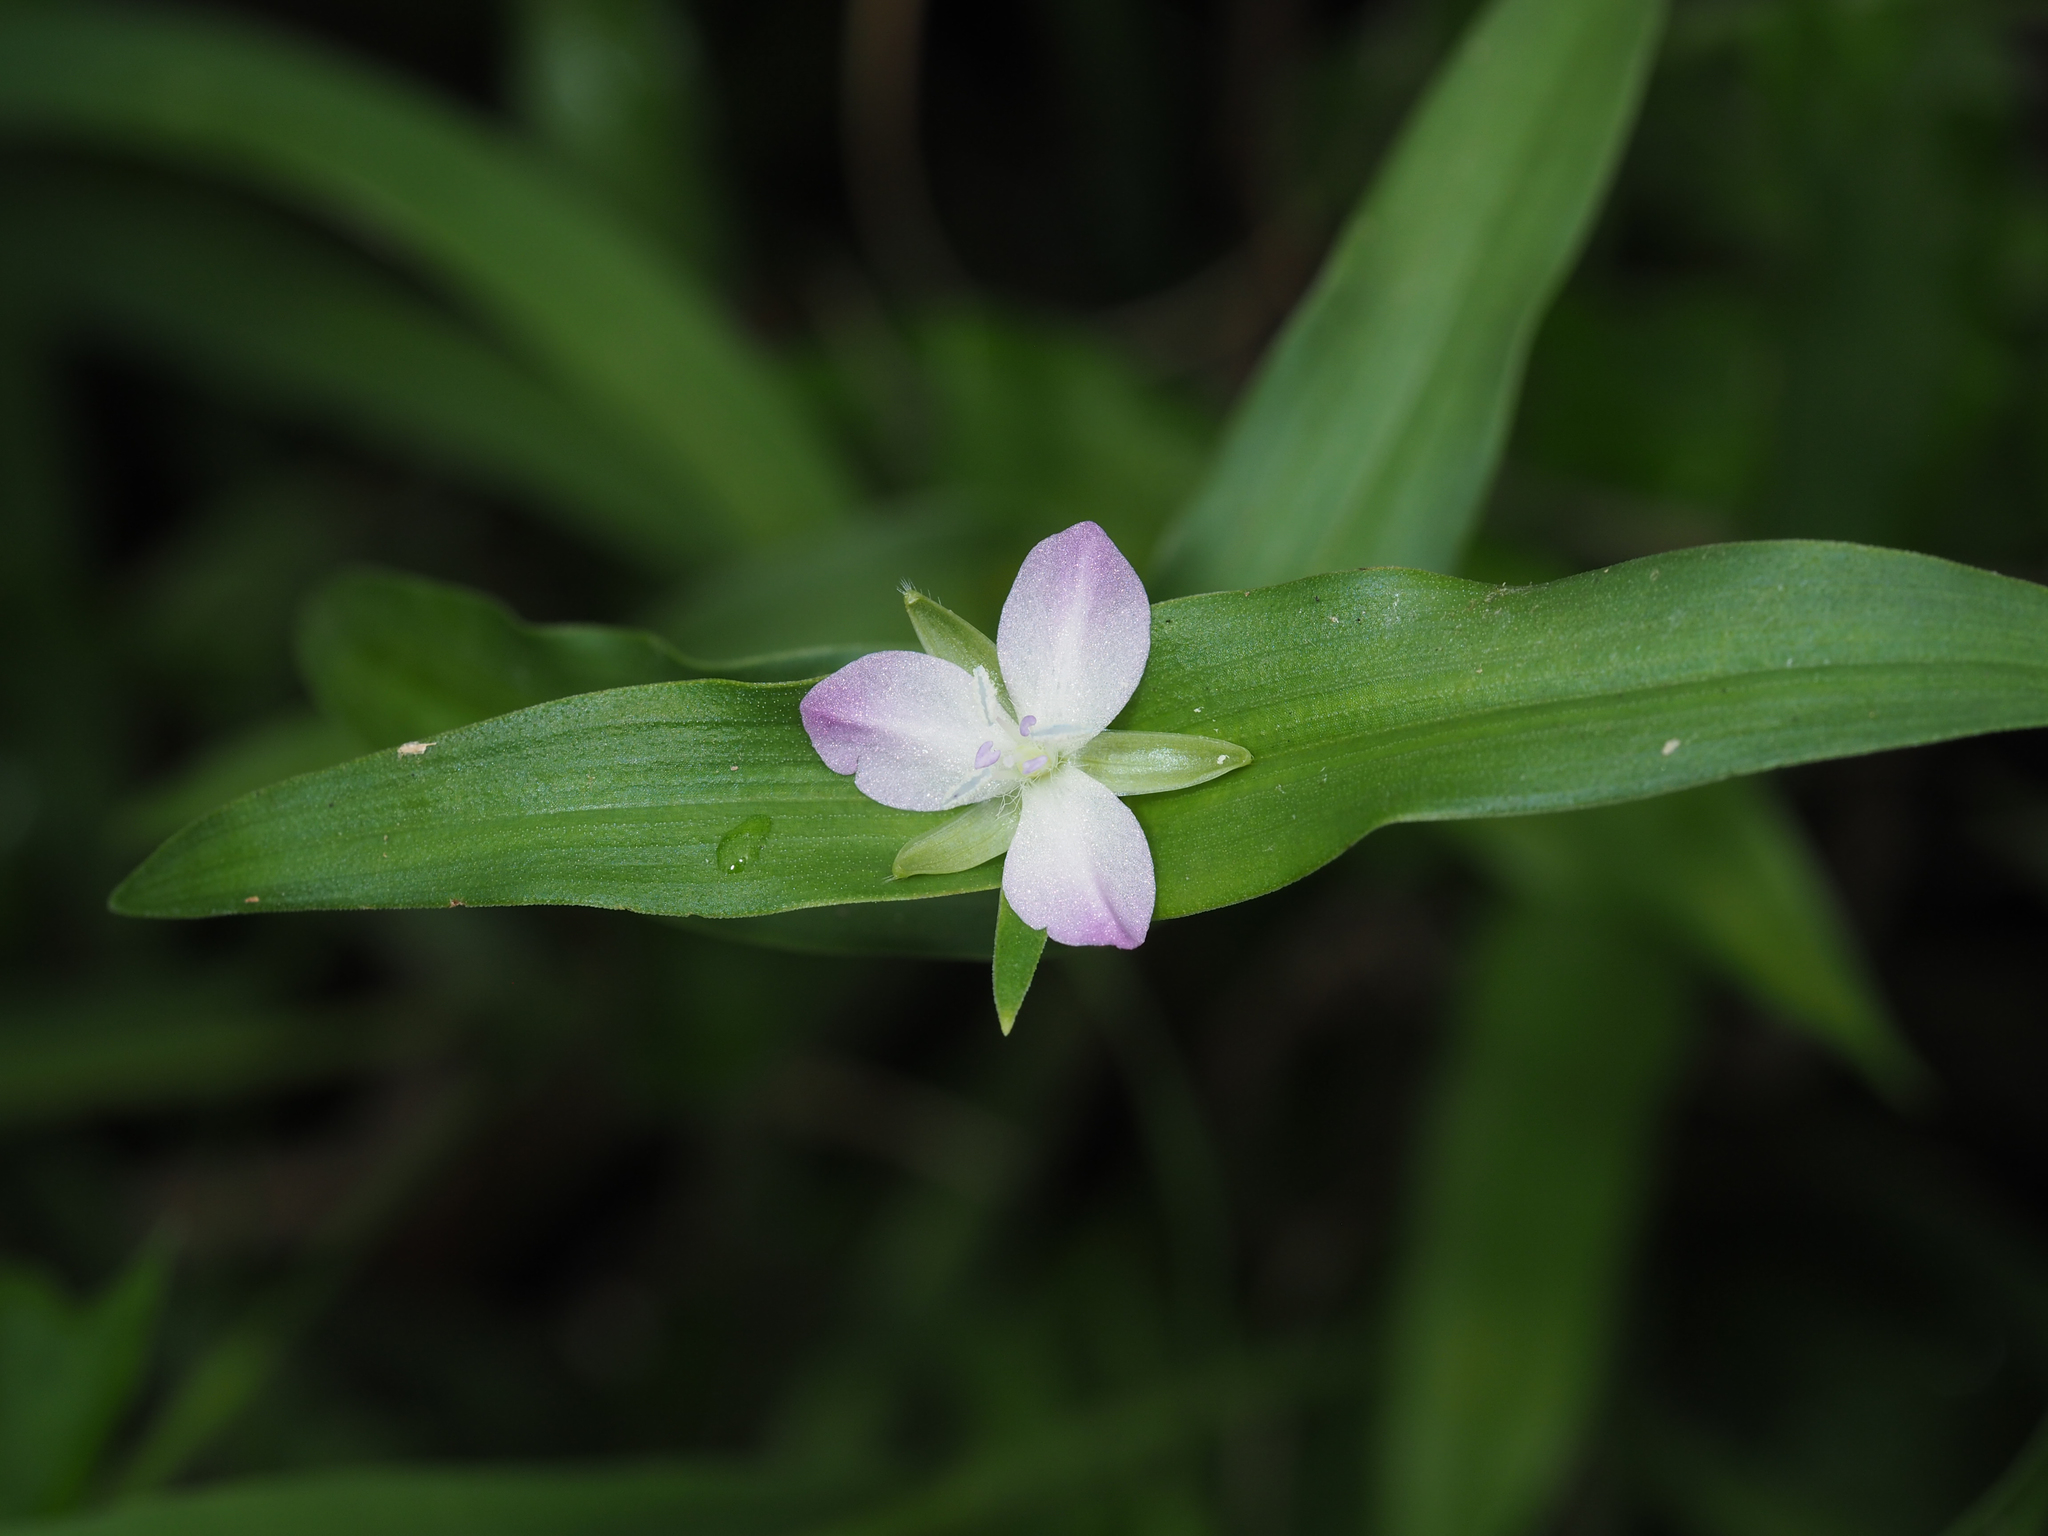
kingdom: Plantae
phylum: Tracheophyta
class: Liliopsida
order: Commelinales
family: Commelinaceae
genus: Murdannia
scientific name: Murdannia keisak
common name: Wartremoving herb
